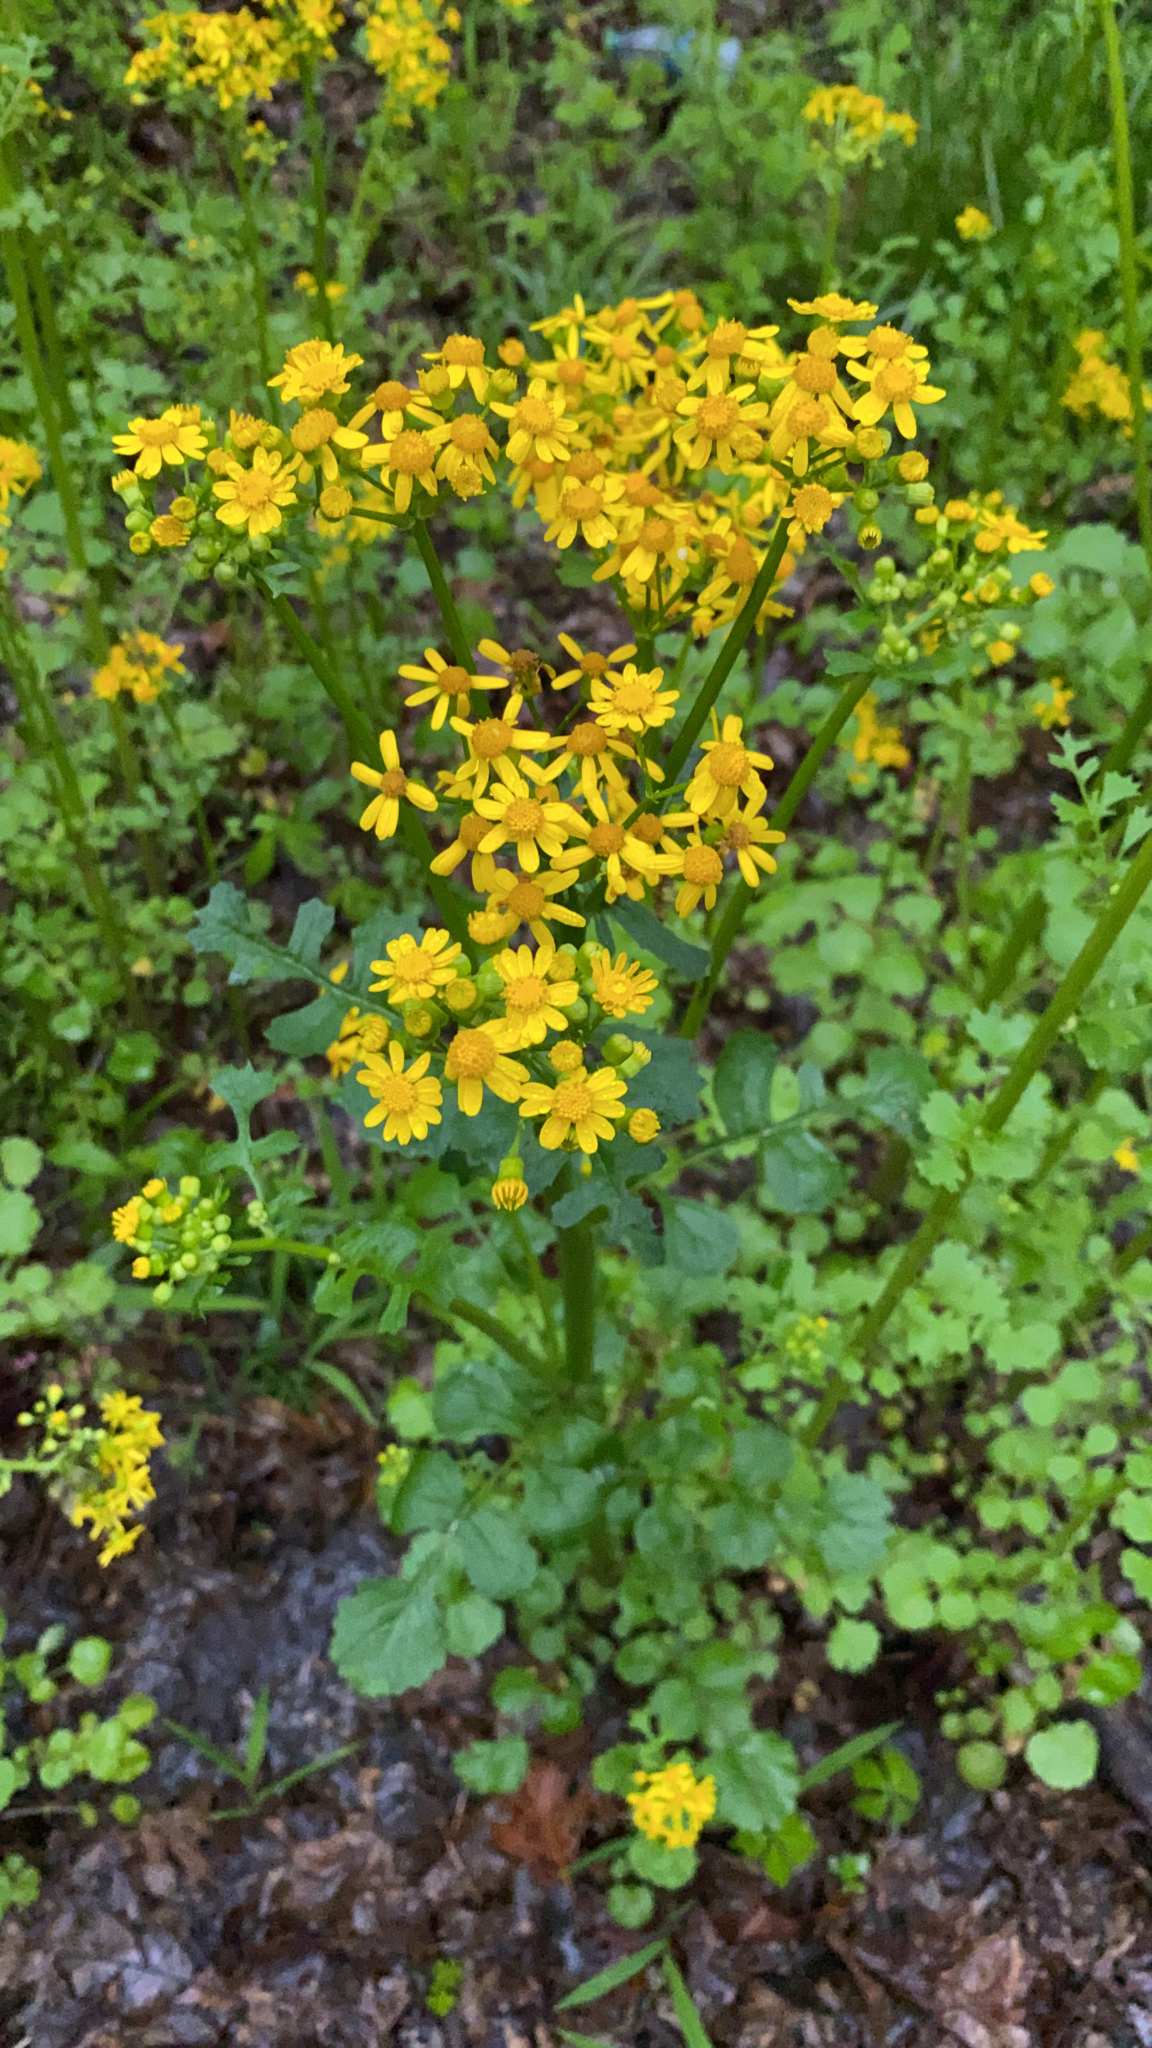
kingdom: Plantae
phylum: Tracheophyta
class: Magnoliopsida
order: Asterales
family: Asteraceae
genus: Packera
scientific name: Packera glabella
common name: Butterweed
